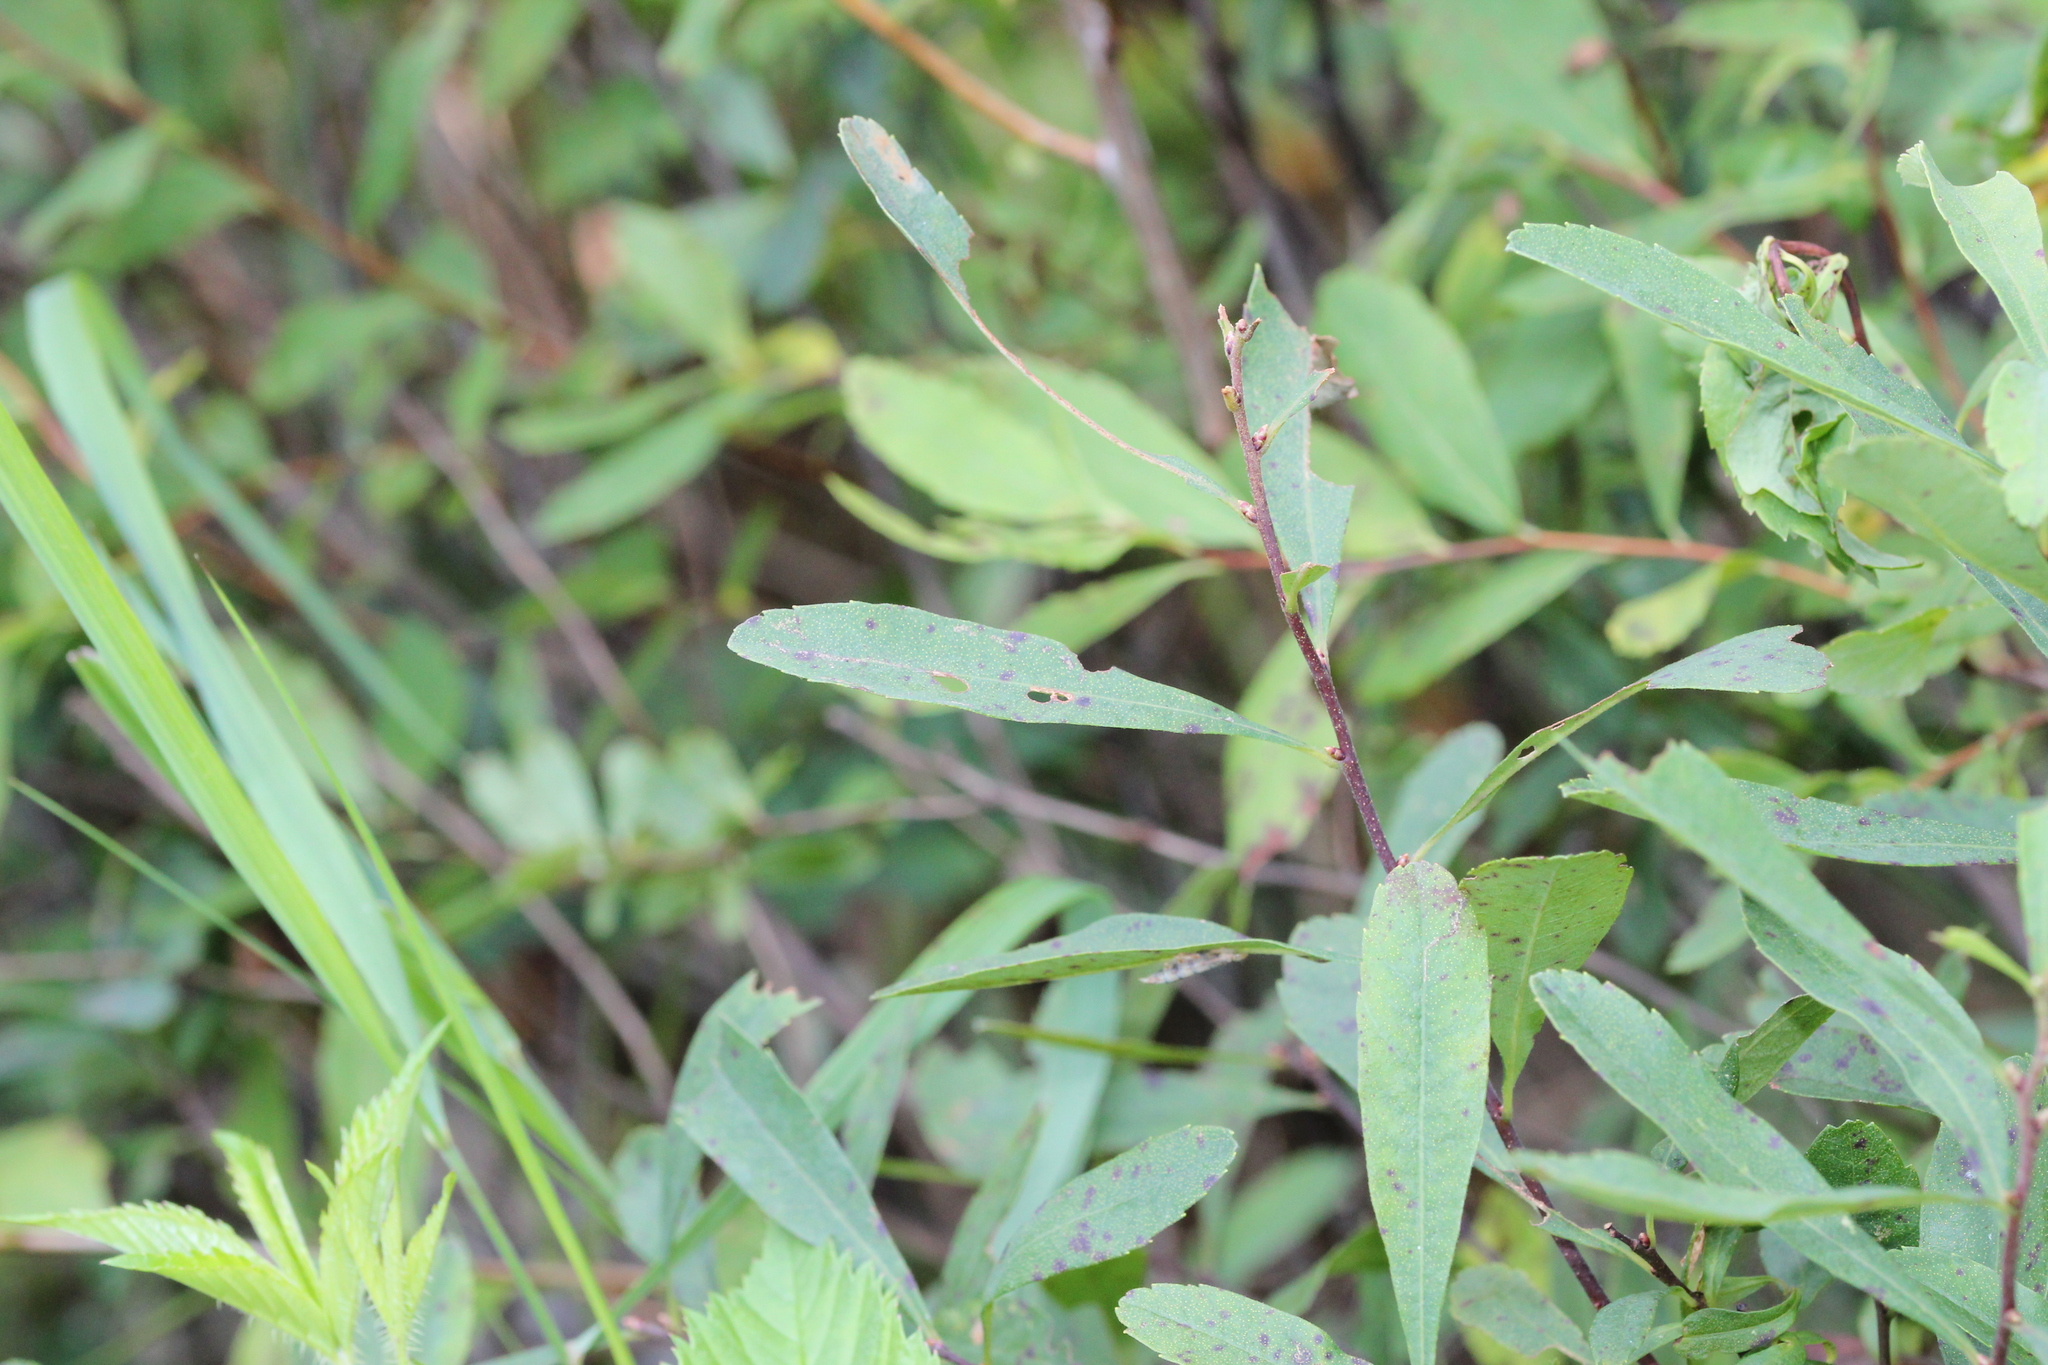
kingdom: Plantae
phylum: Tracheophyta
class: Magnoliopsida
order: Fagales
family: Myricaceae
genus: Myrica
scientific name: Myrica gale
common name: Sweet gale
